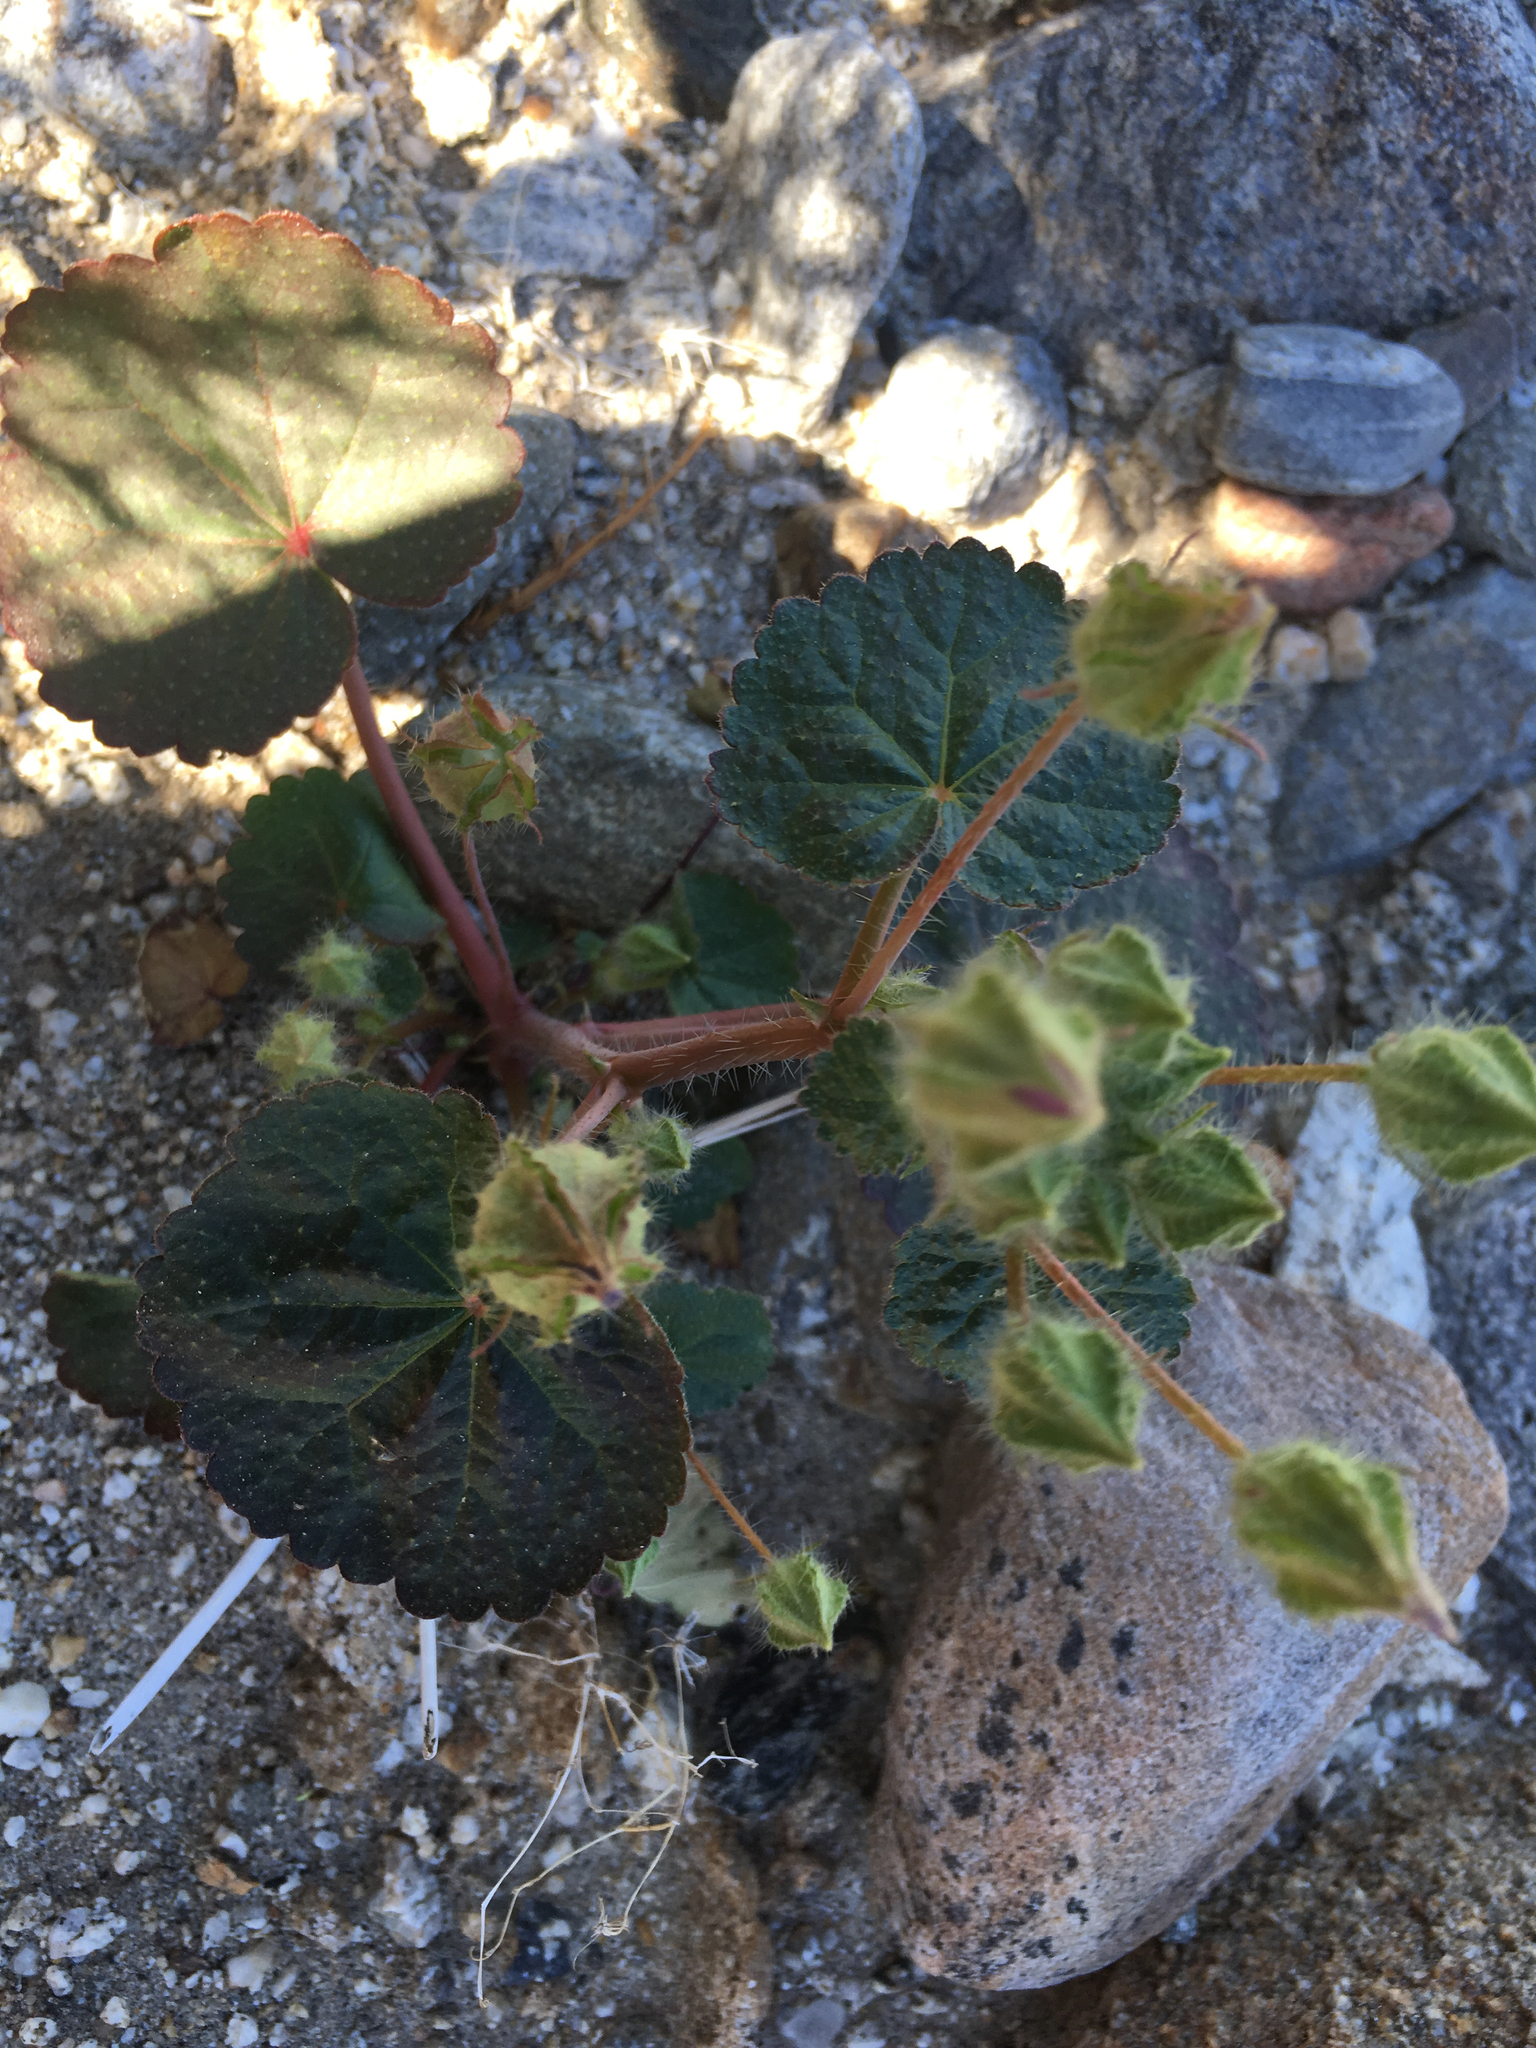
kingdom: Plantae
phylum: Tracheophyta
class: Magnoliopsida
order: Malvales
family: Malvaceae
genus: Eremalche
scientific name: Eremalche rotundifolia
